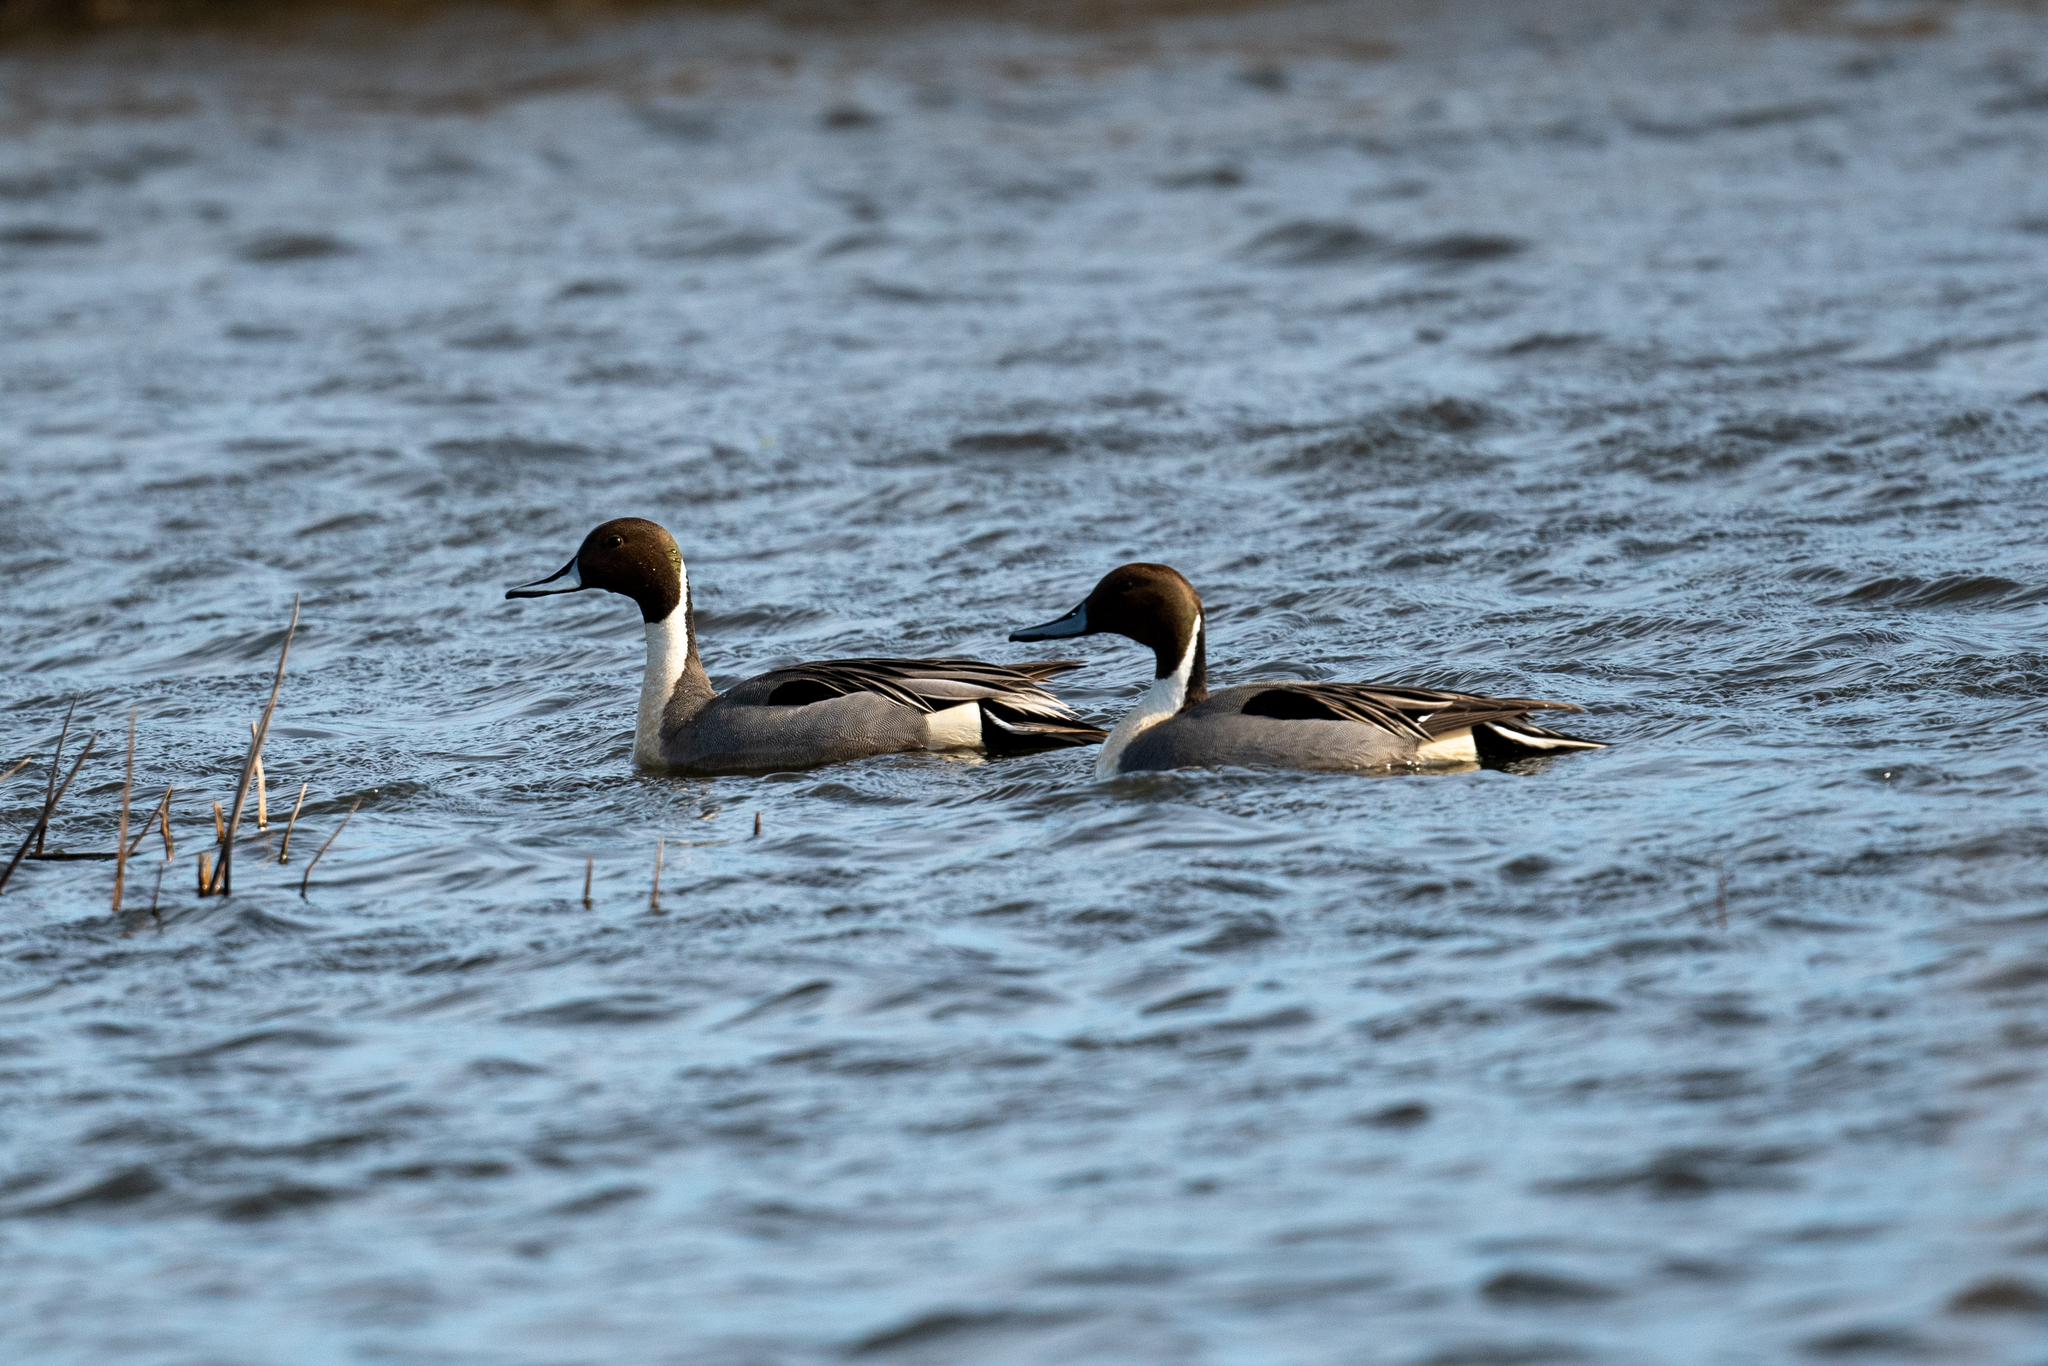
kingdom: Animalia
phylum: Chordata
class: Aves
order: Anseriformes
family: Anatidae
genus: Anas
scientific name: Anas acuta
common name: Northern pintail
